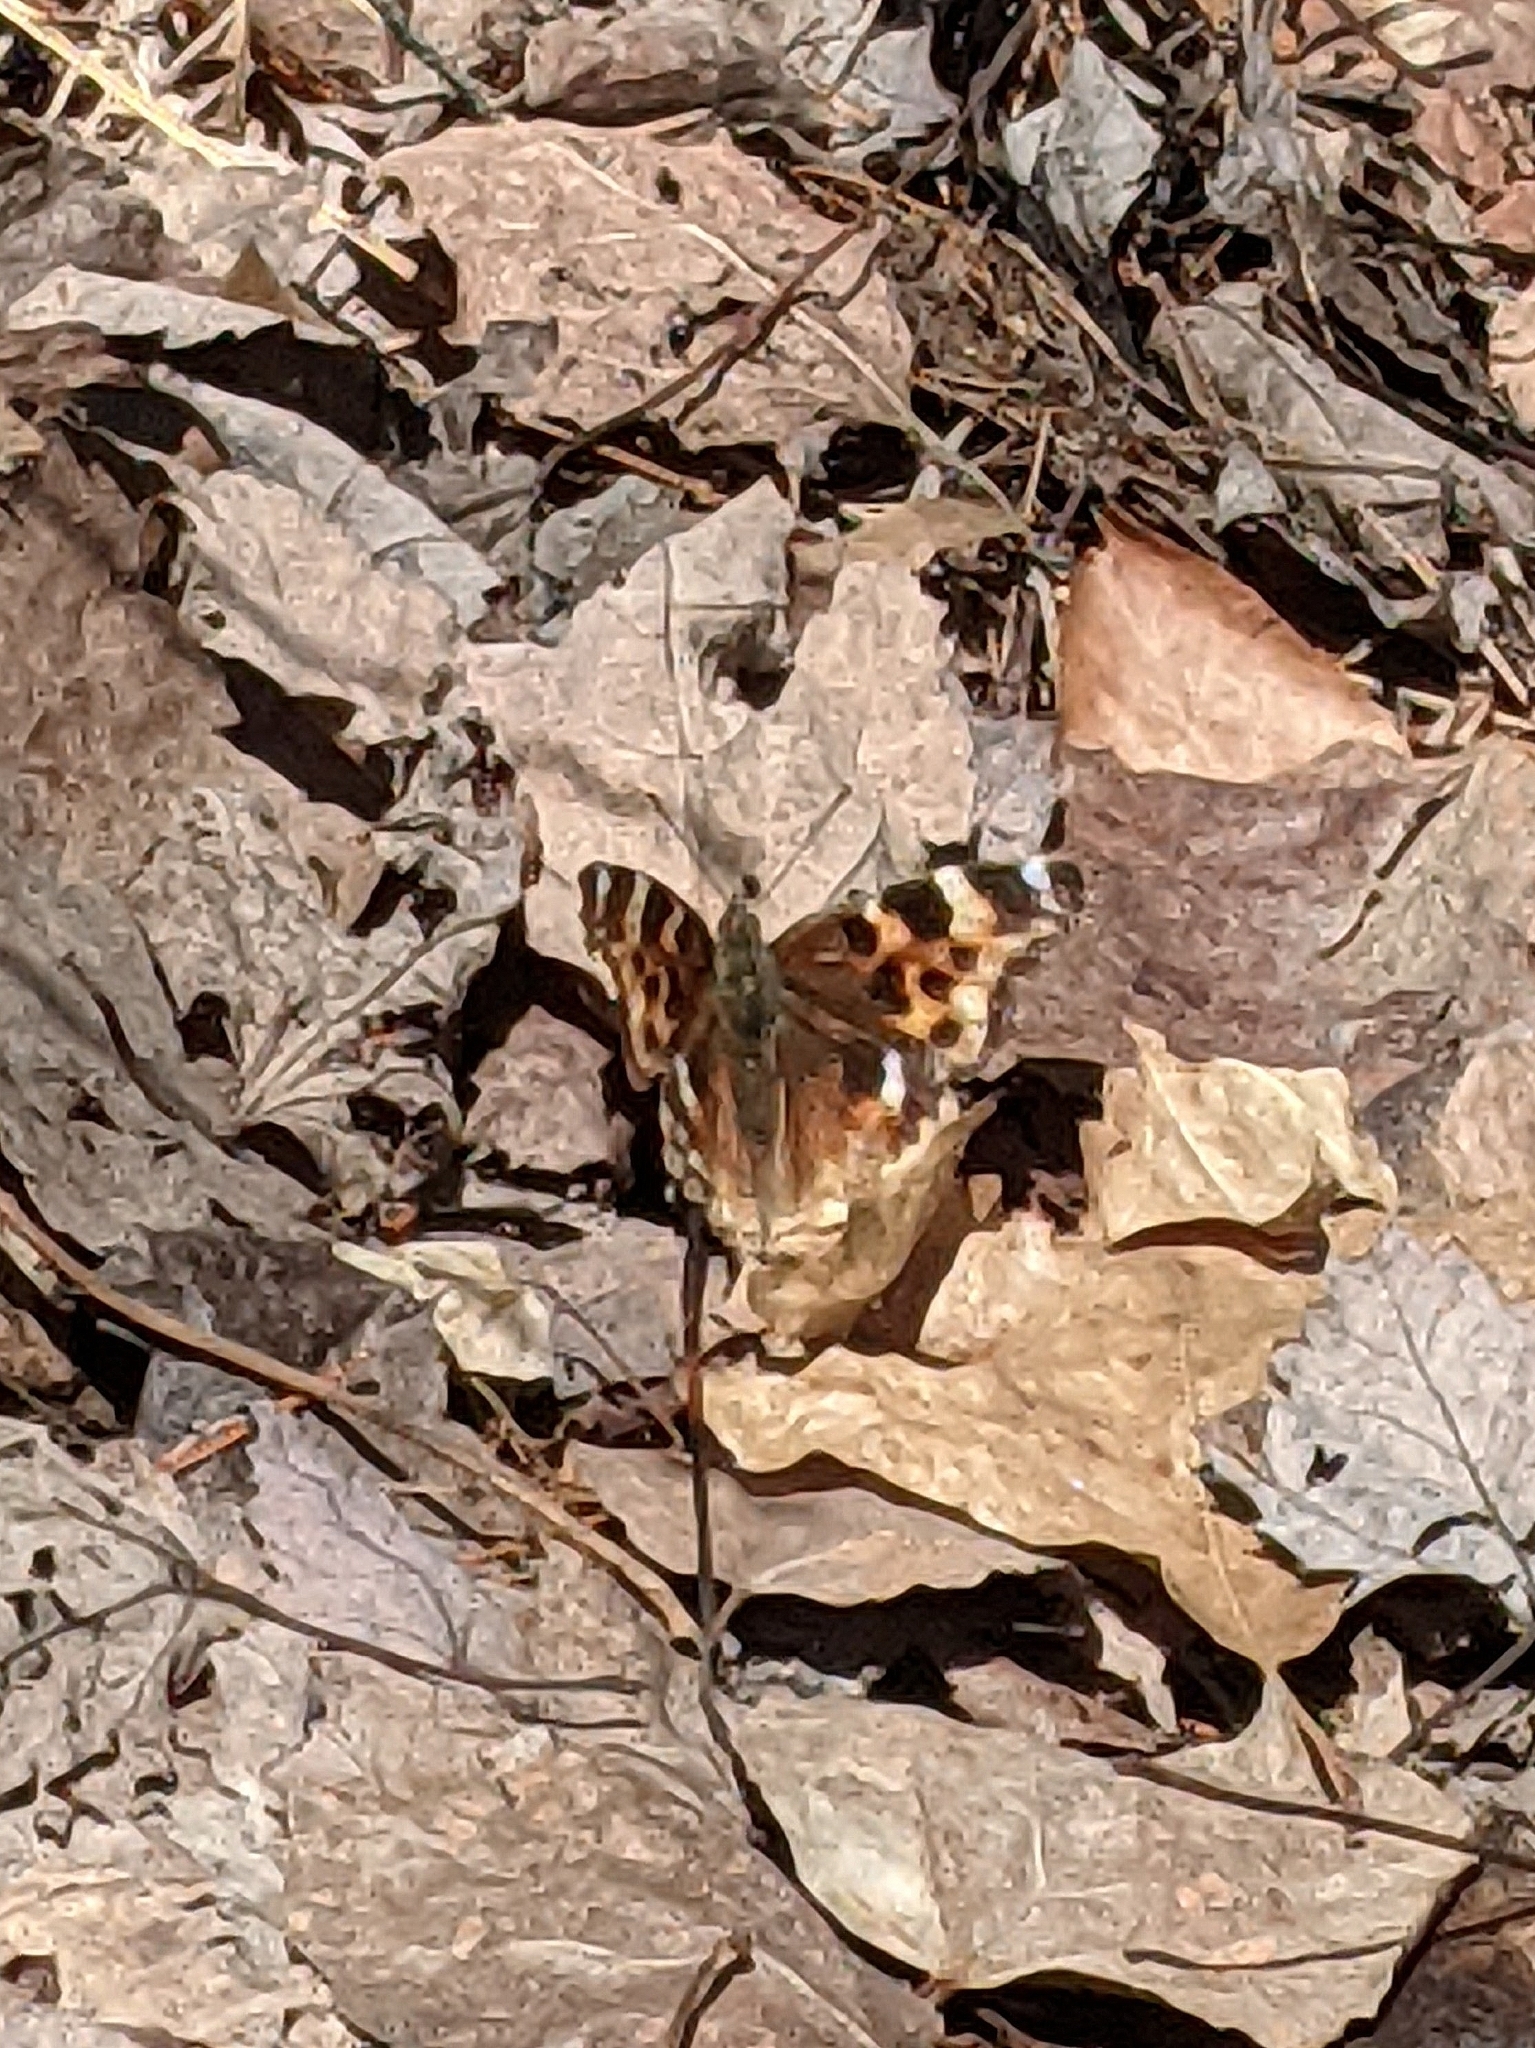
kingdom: Animalia
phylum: Arthropoda
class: Insecta
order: Lepidoptera
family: Nymphalidae
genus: Polygonia
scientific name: Polygonia vaualbum
